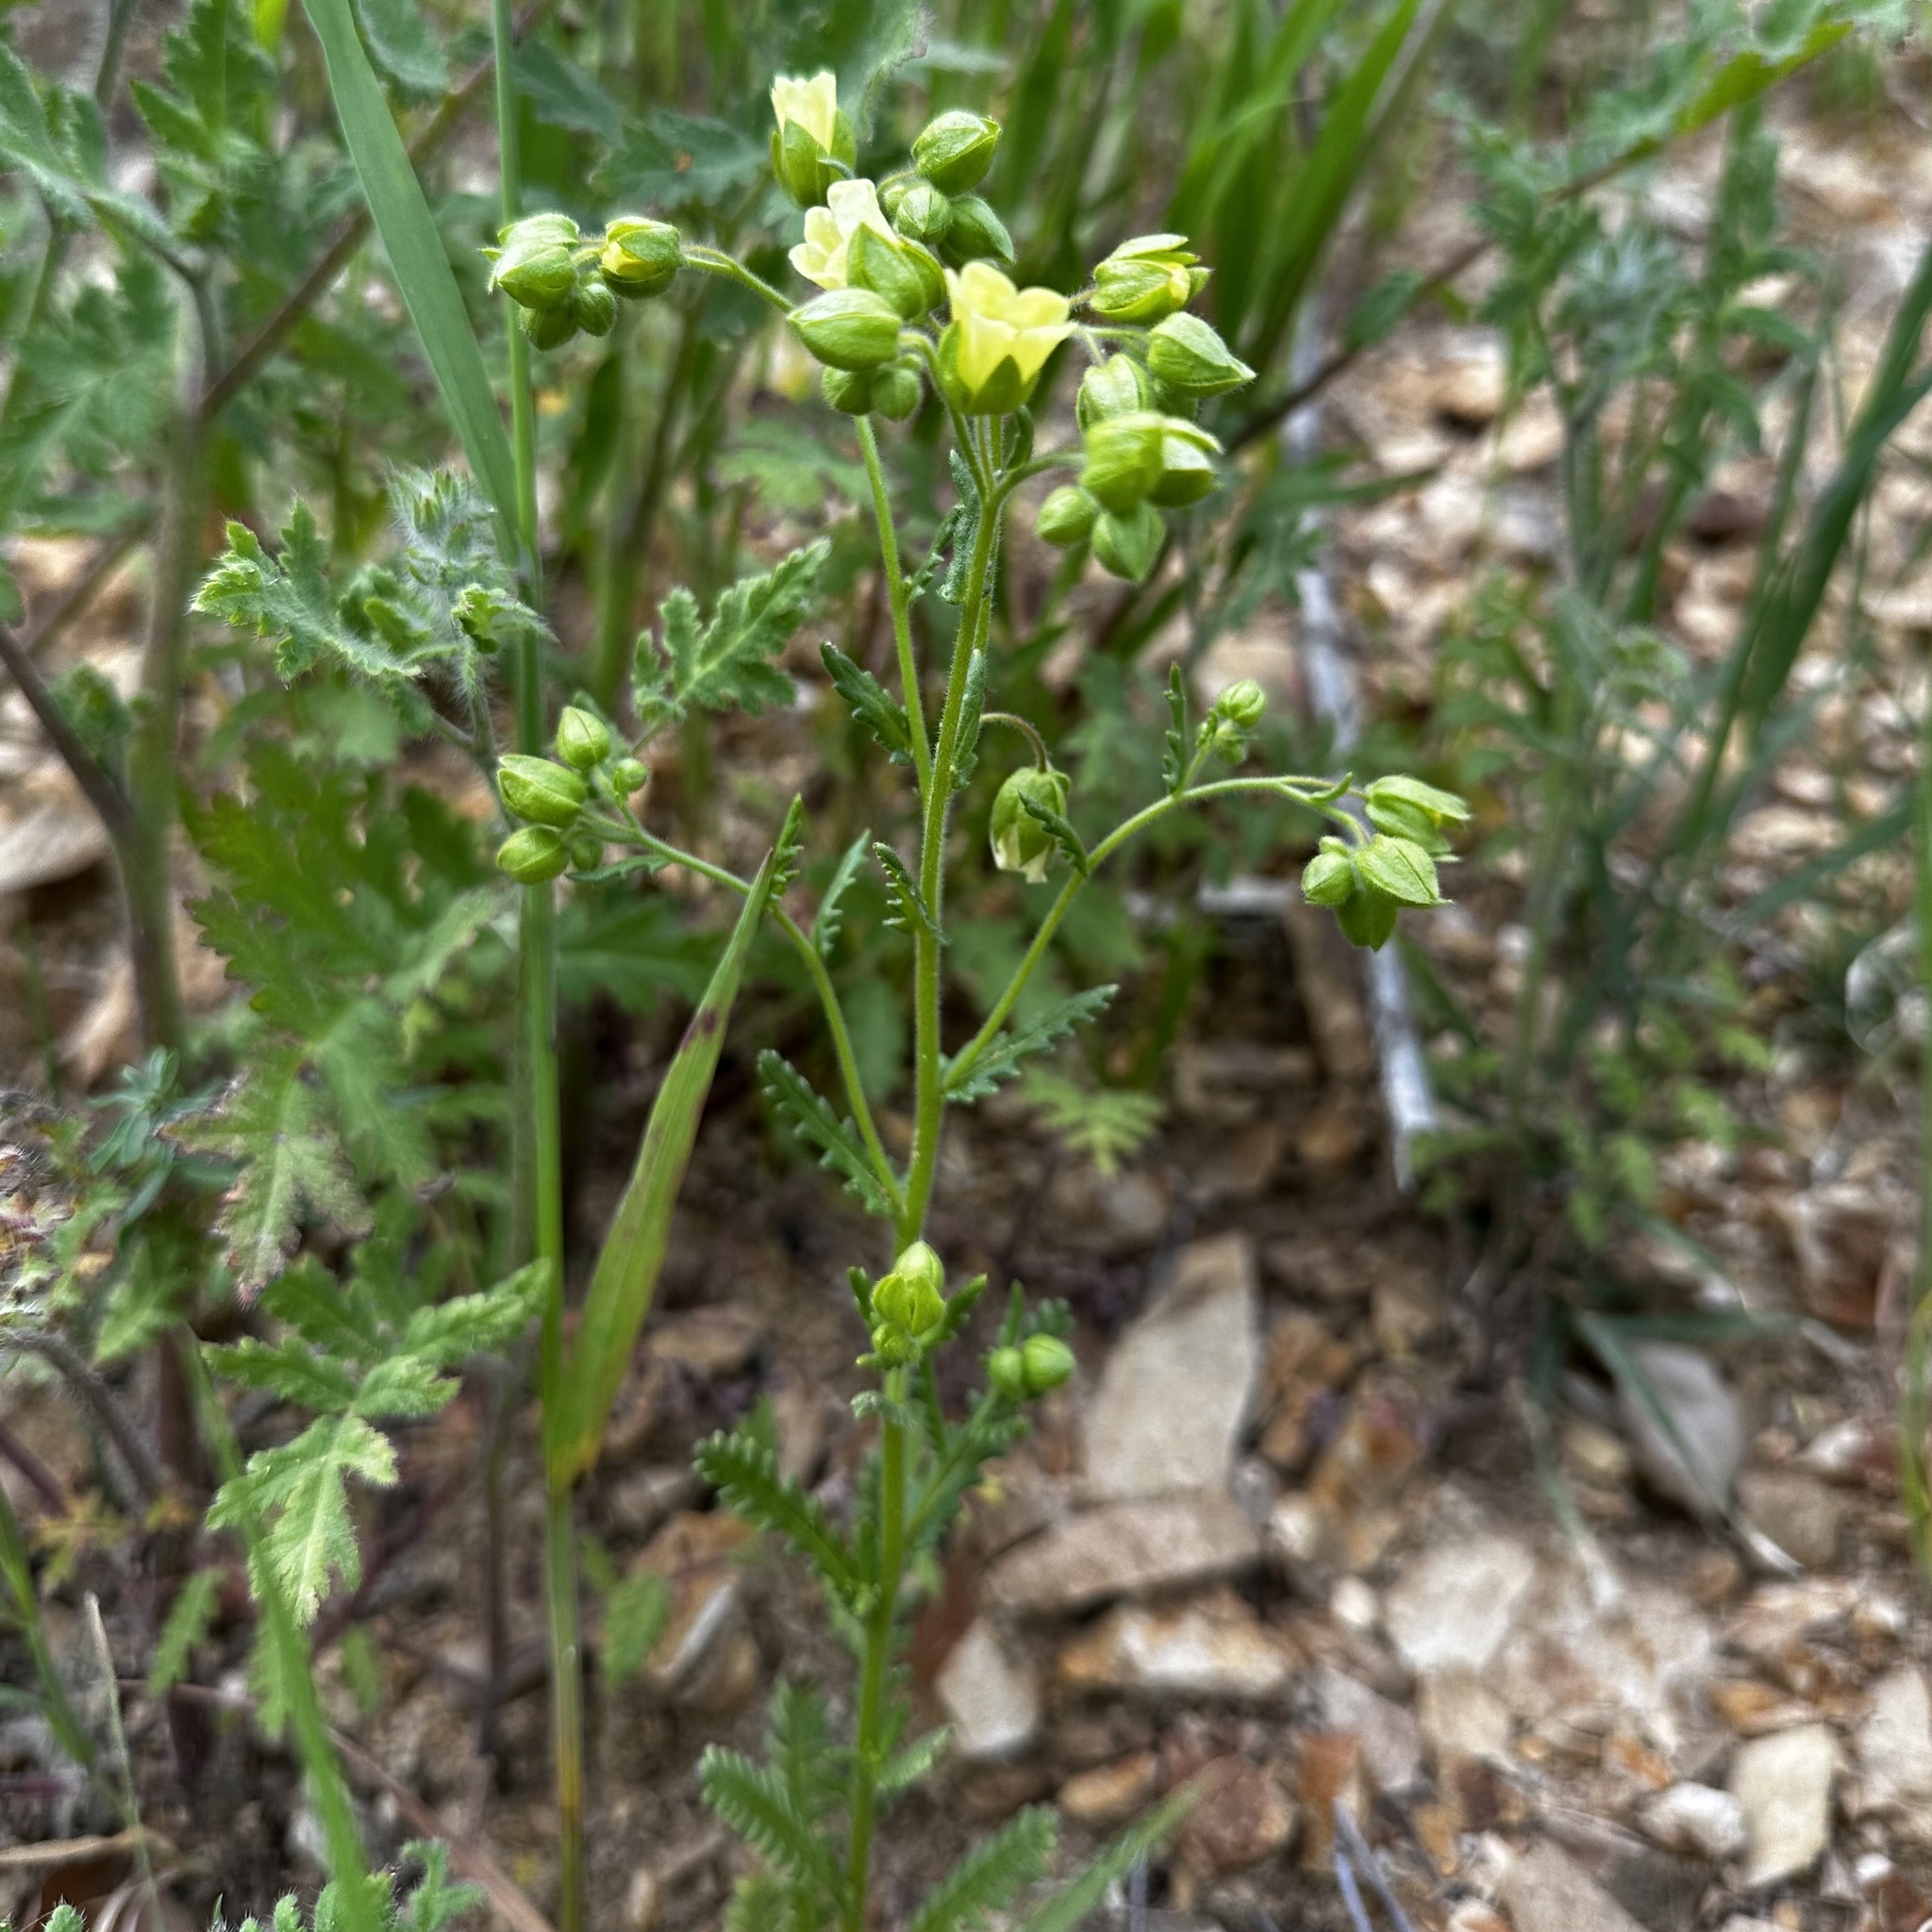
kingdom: Plantae
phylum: Tracheophyta
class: Magnoliopsida
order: Boraginales
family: Hydrophyllaceae
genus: Emmenanthe
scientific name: Emmenanthe penduliflora
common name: Whispering-bells
